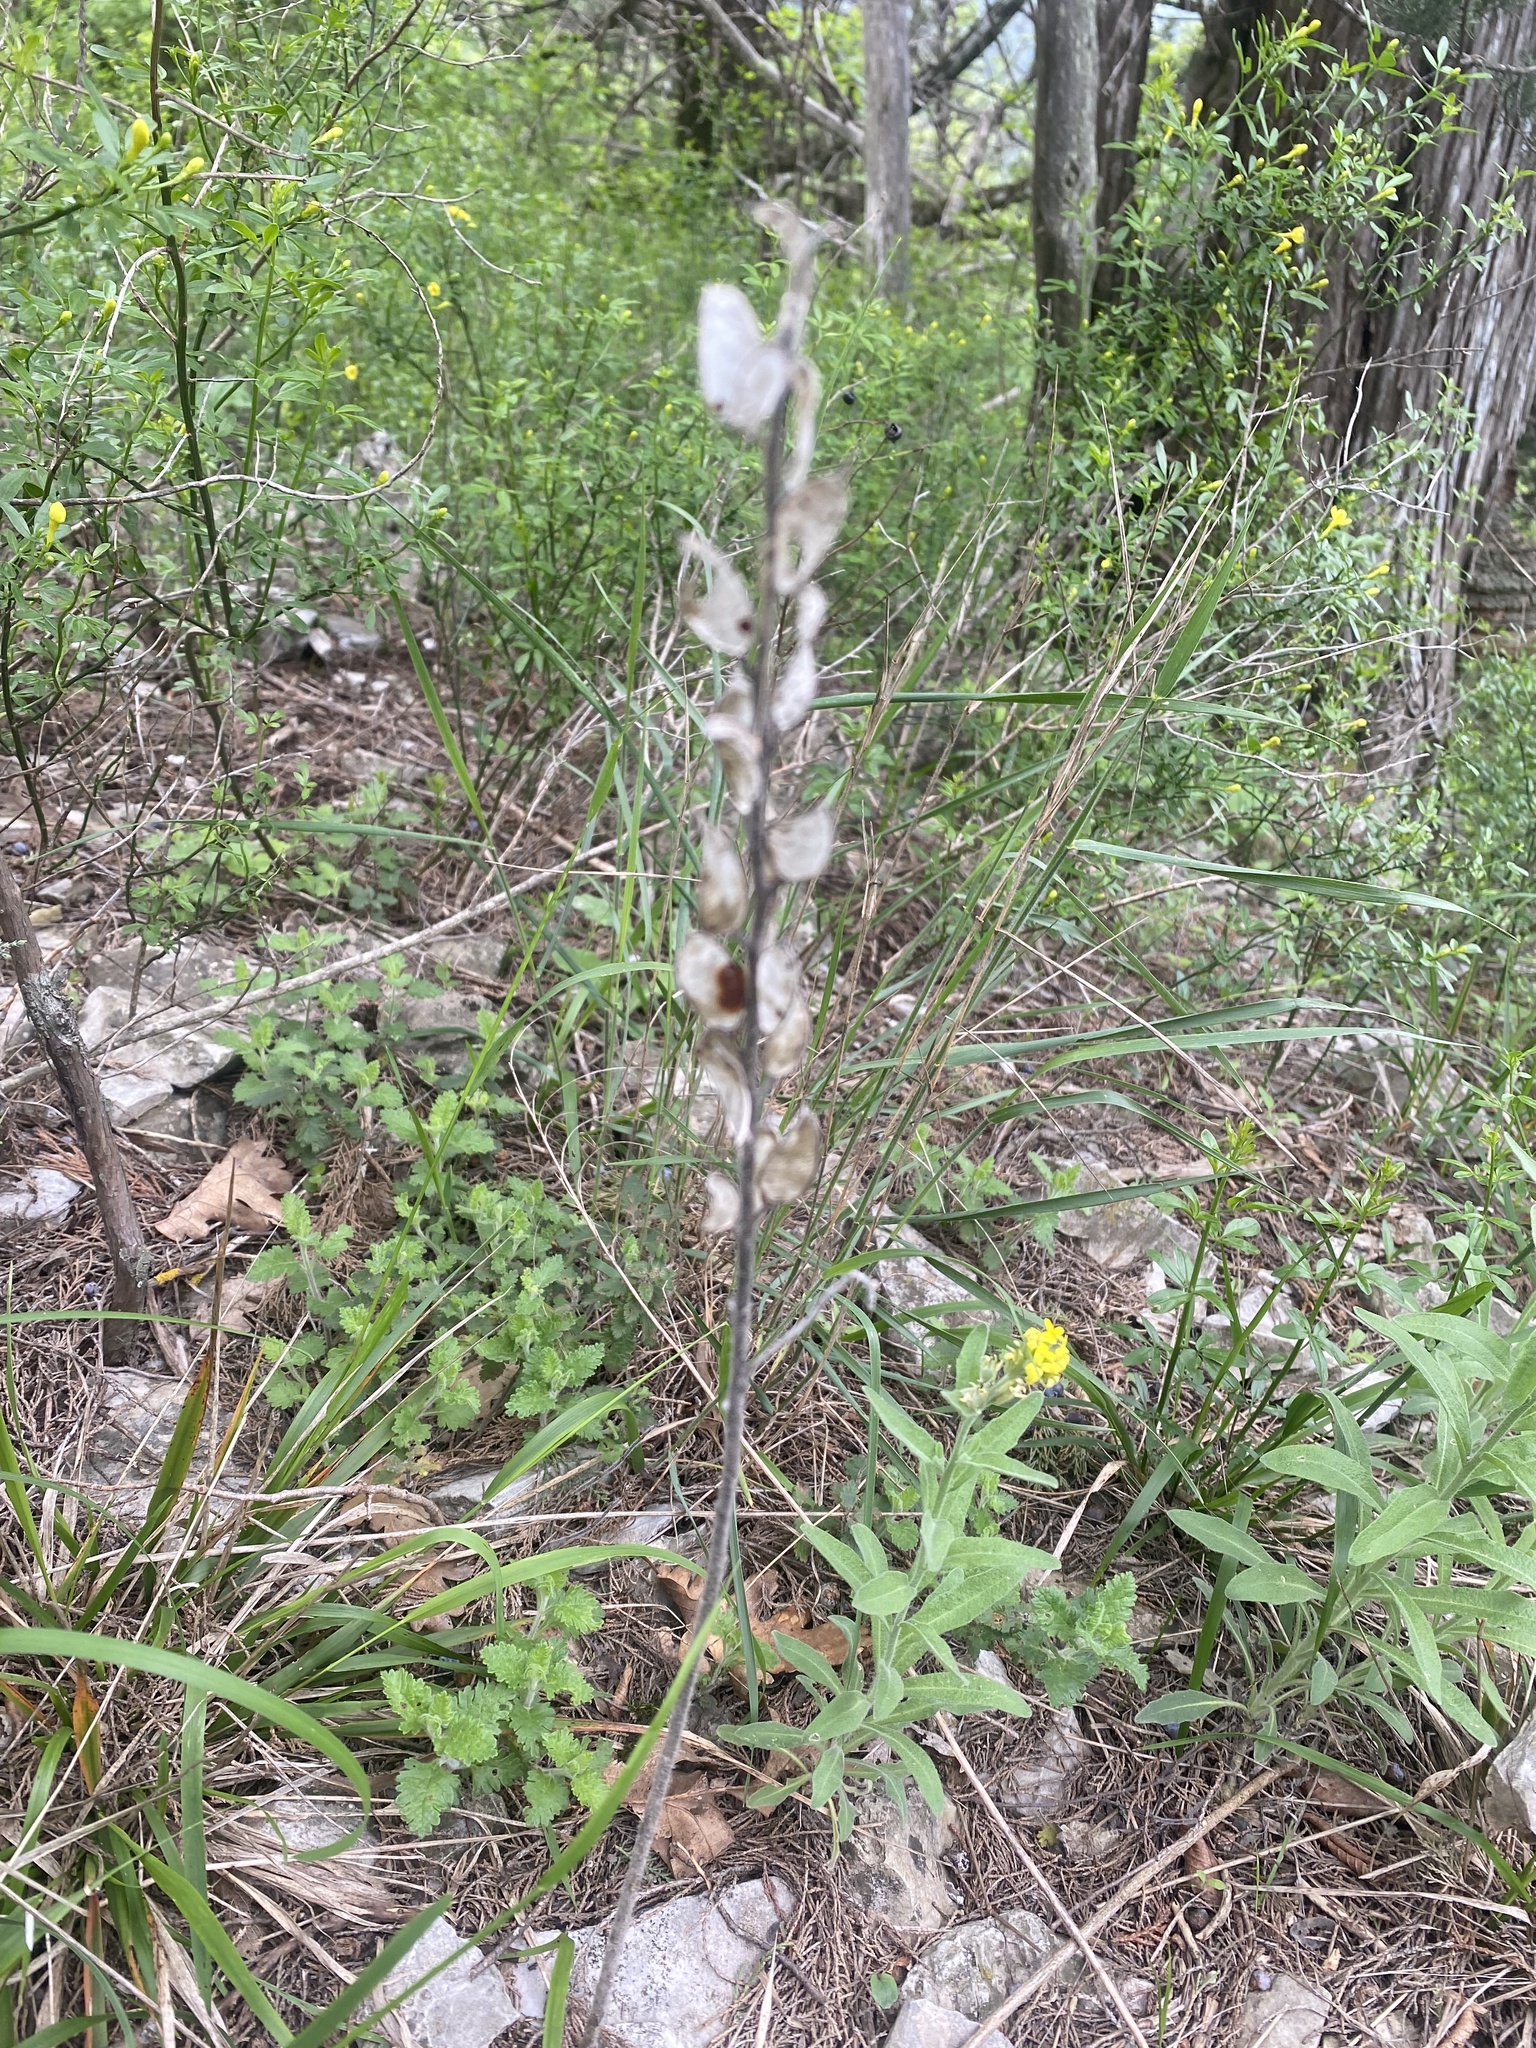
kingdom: Plantae
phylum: Tracheophyta
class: Magnoliopsida
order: Brassicales
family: Brassicaceae
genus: Fibigia
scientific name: Fibigia clypeata
